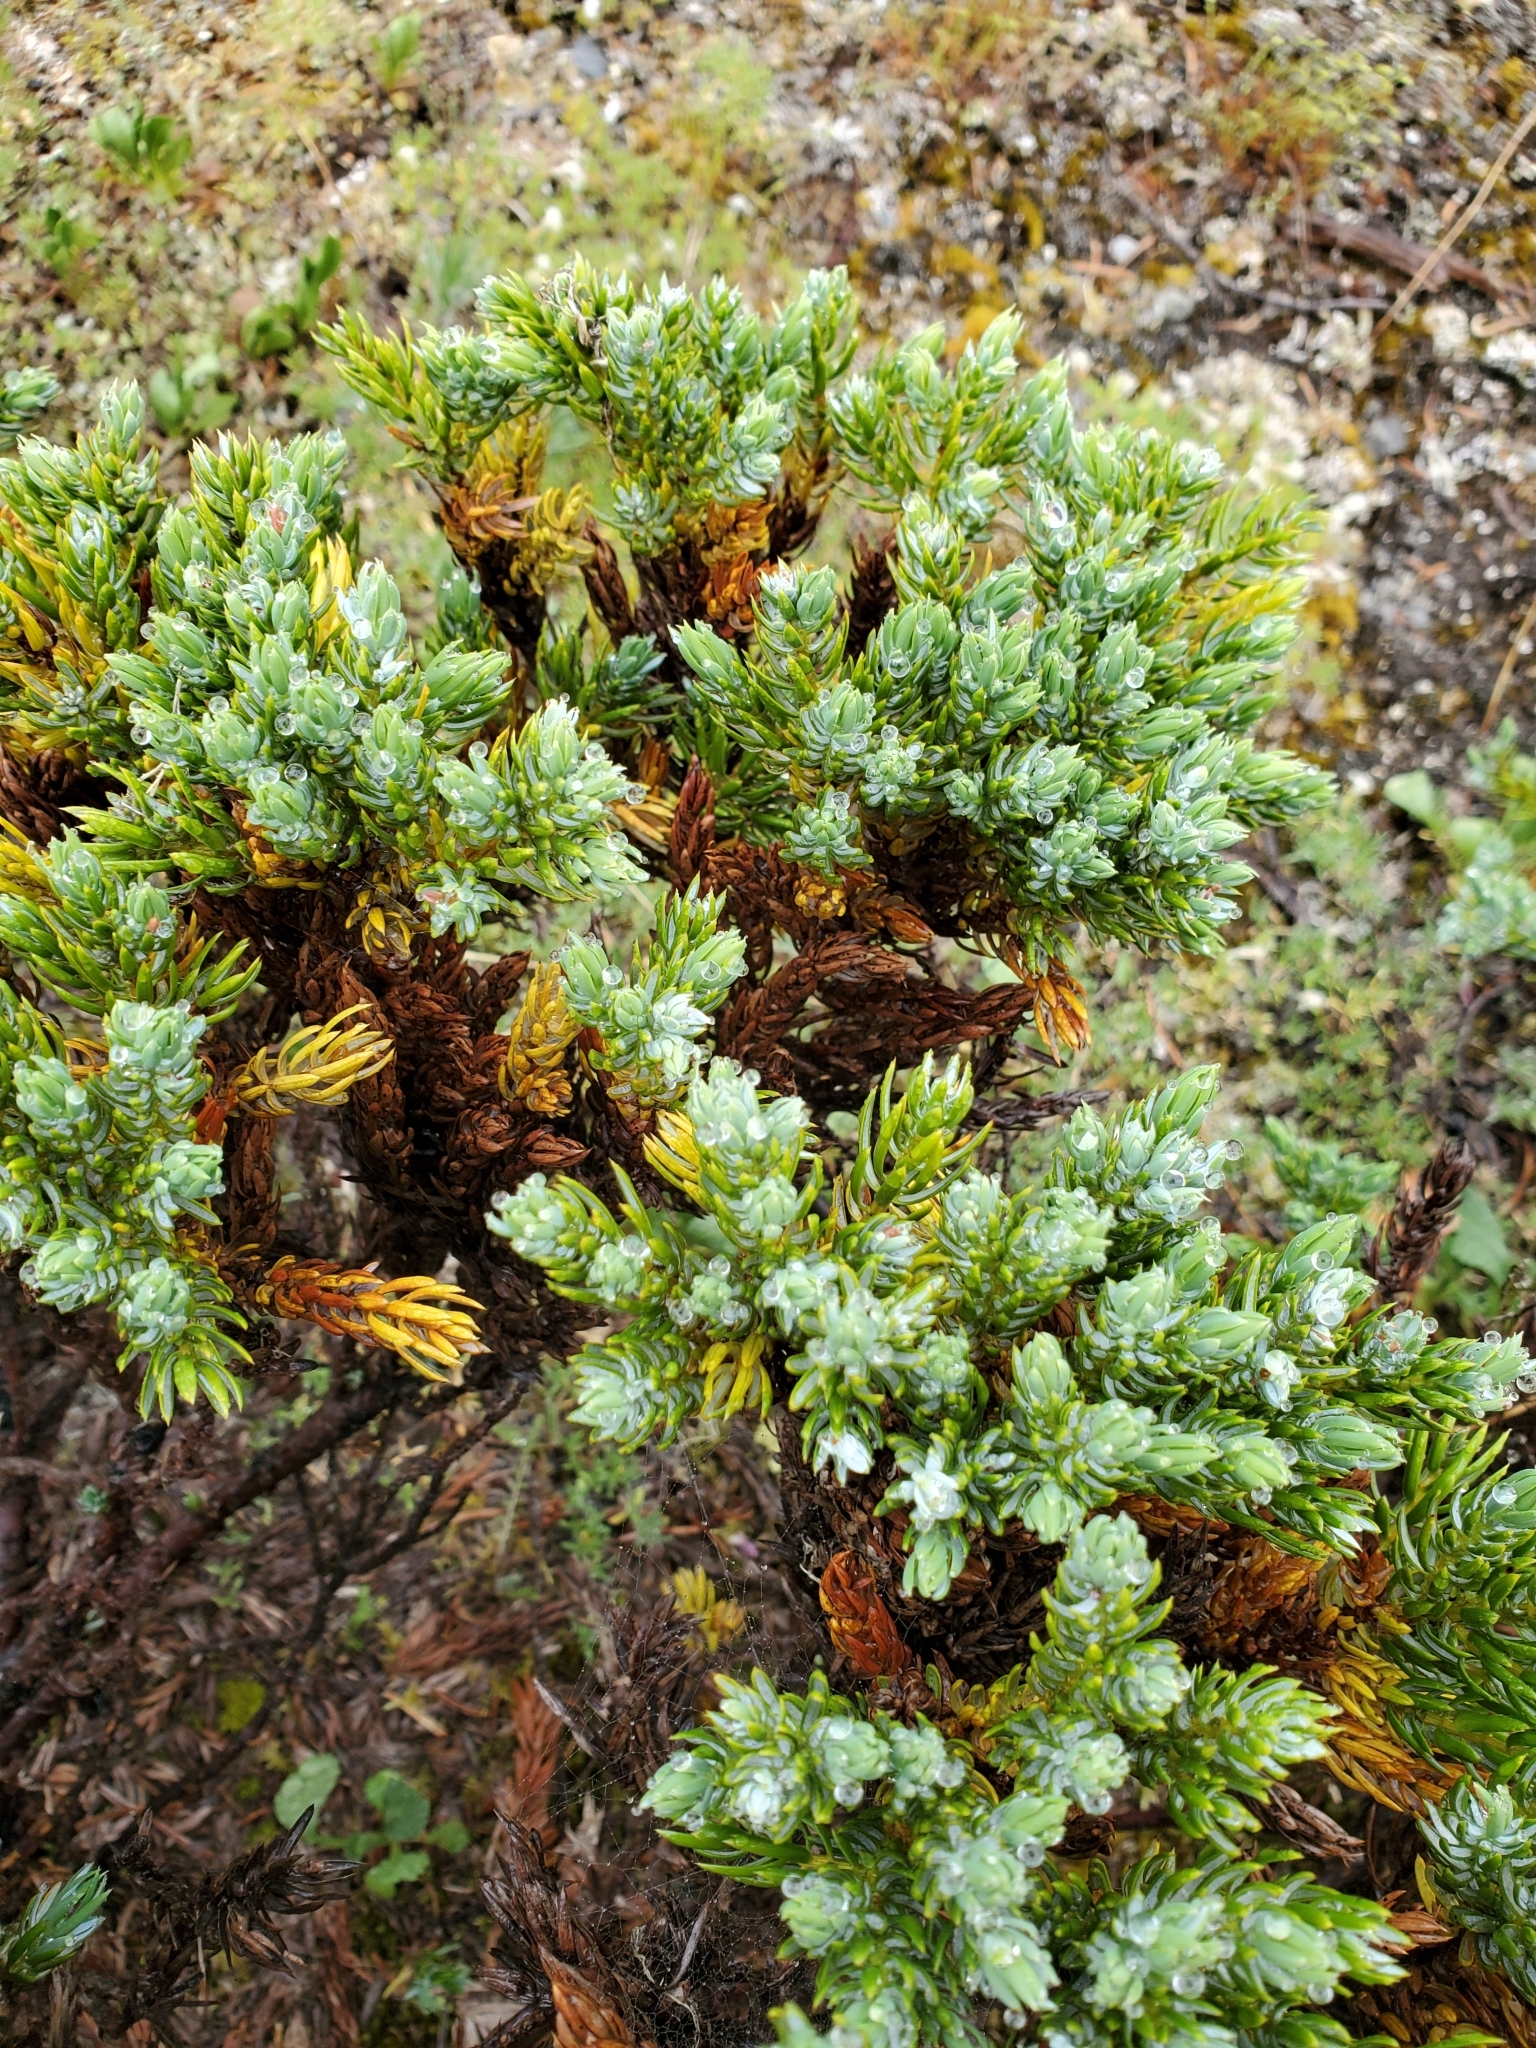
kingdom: Plantae
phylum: Tracheophyta
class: Pinopsida
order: Pinales
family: Cupressaceae
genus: Juniperus
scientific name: Juniperus communis
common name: Common juniper
